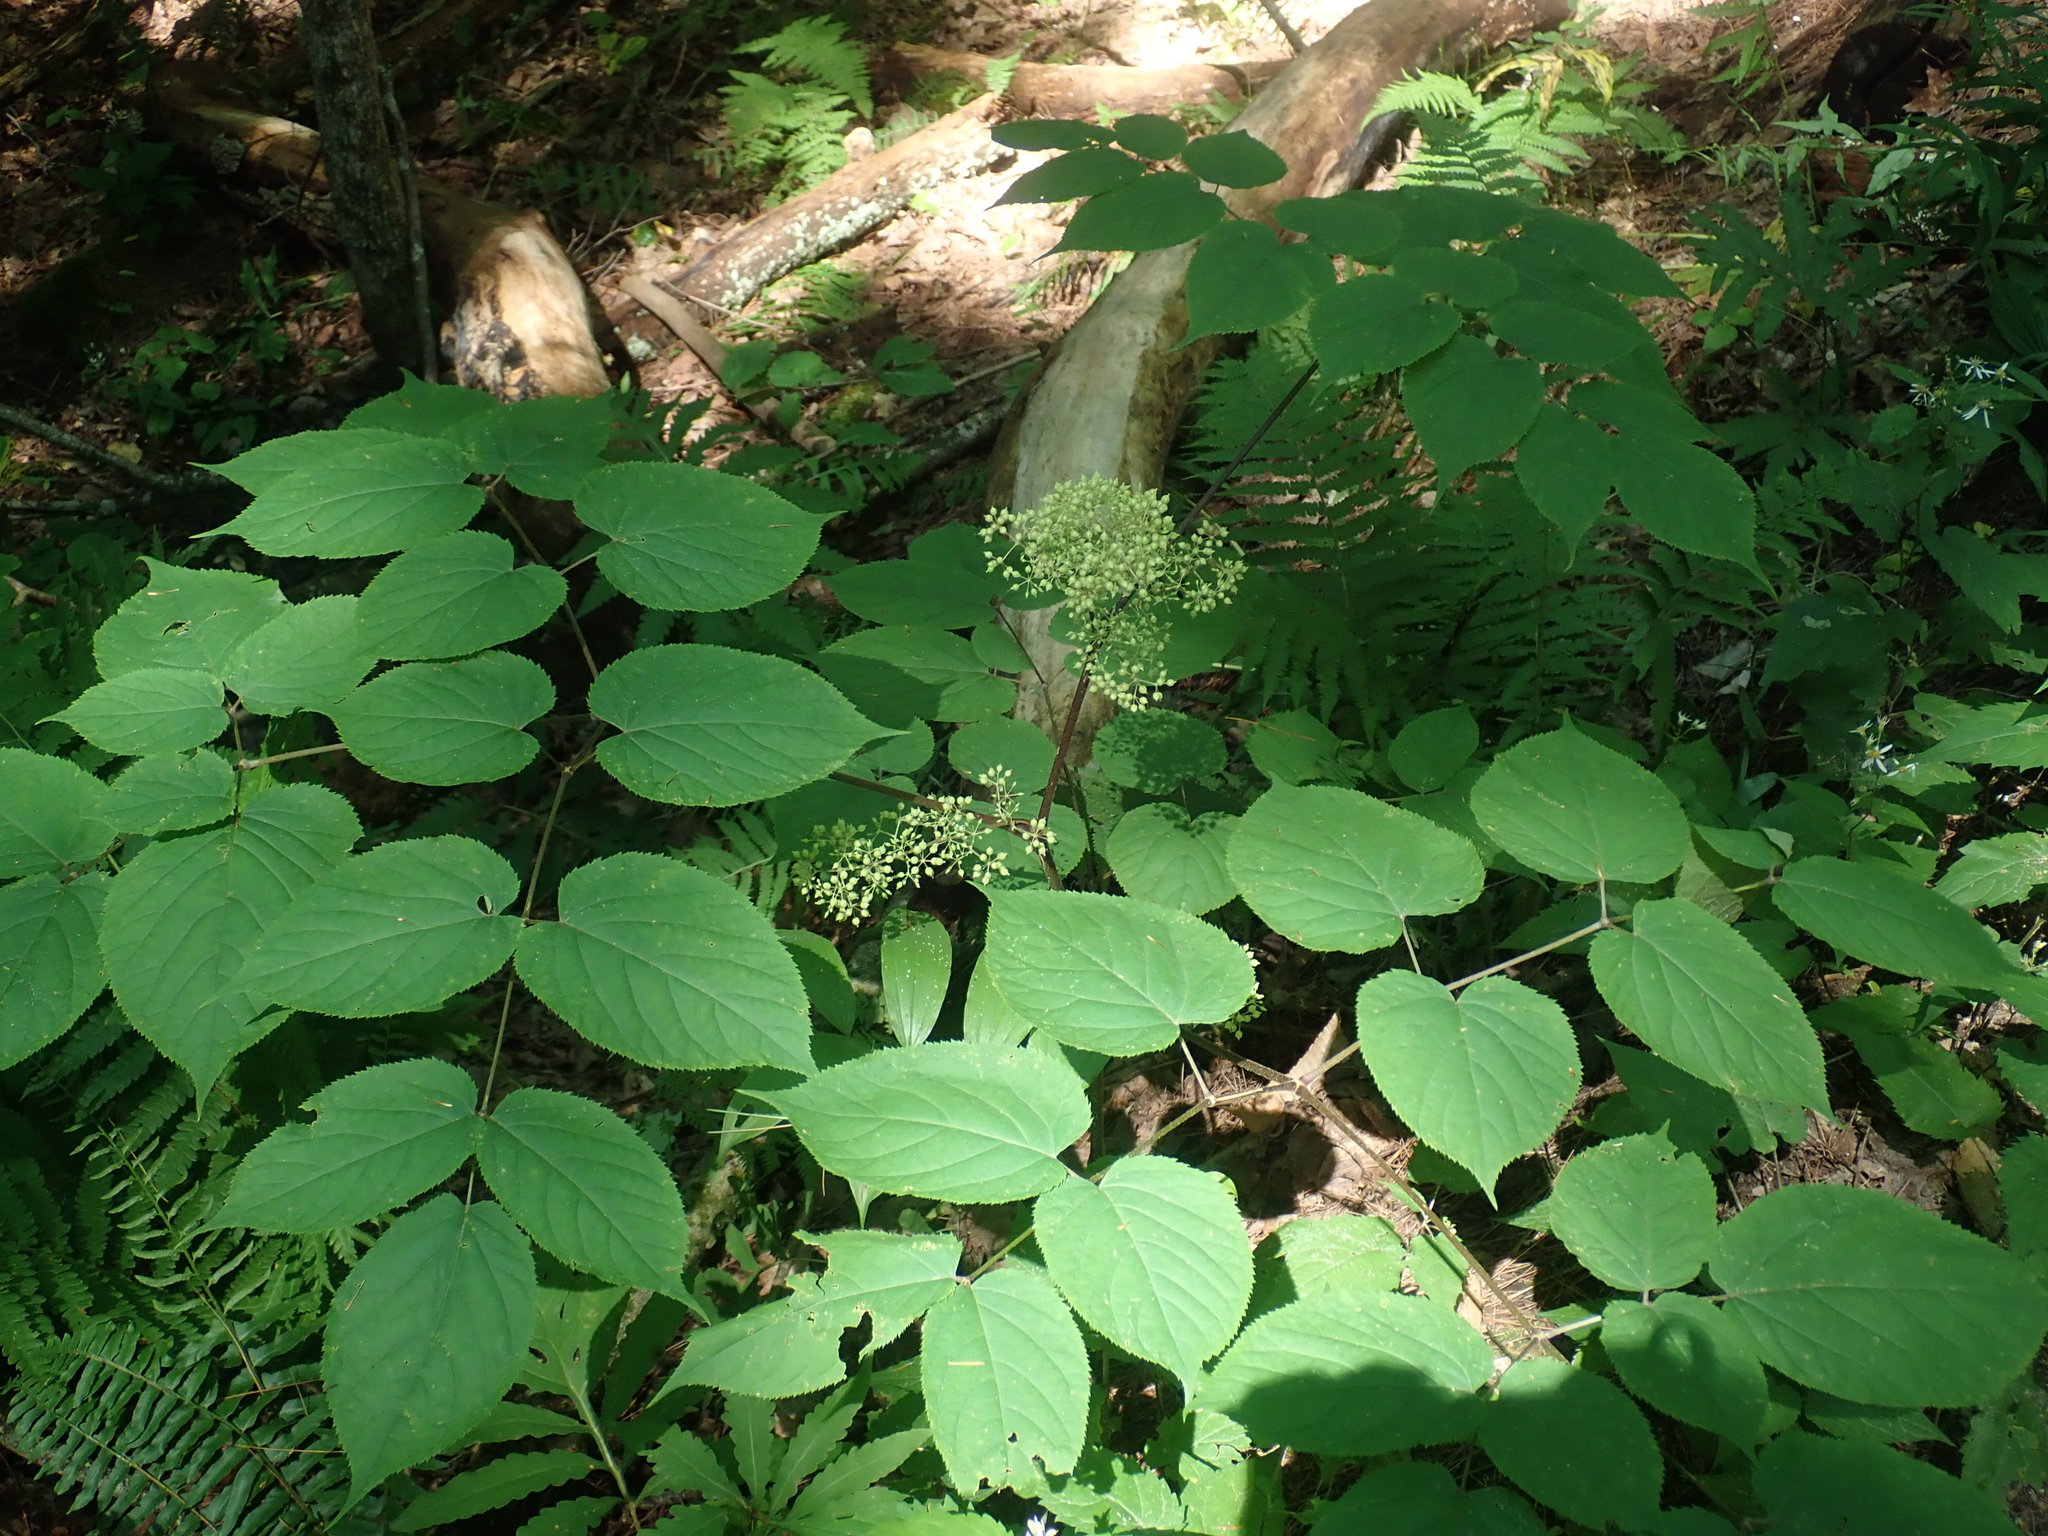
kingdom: Plantae
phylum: Tracheophyta
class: Magnoliopsida
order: Apiales
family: Araliaceae
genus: Aralia
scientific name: Aralia racemosa
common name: American-spikenard
